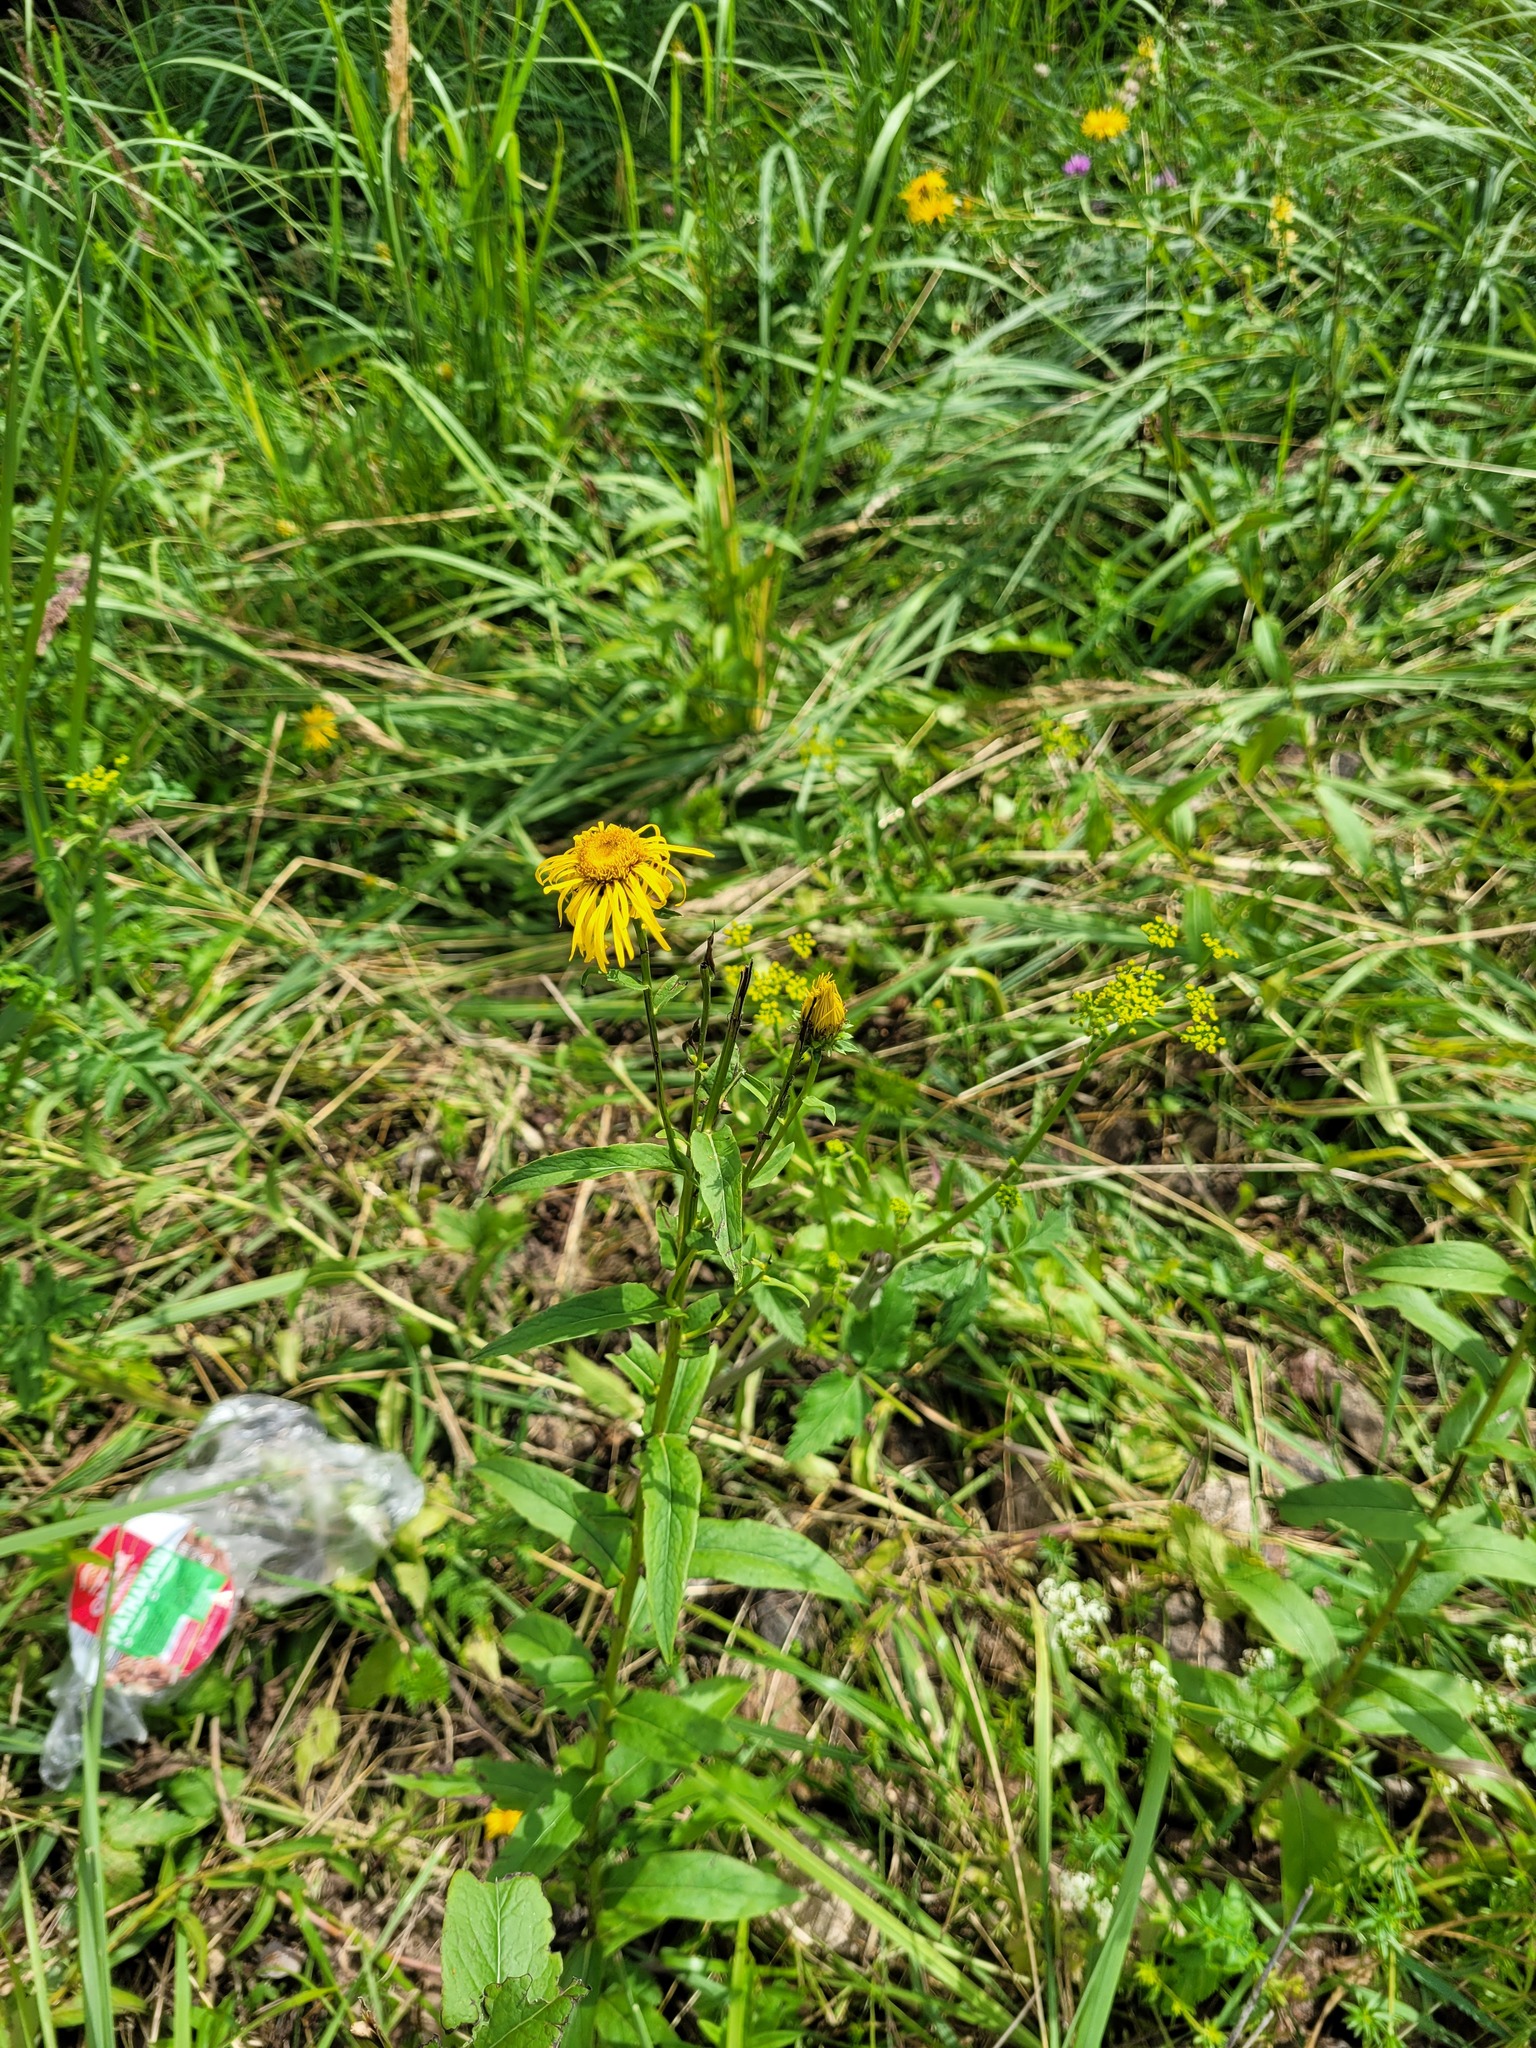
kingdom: Plantae
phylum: Tracheophyta
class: Magnoliopsida
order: Asterales
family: Asteraceae
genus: Pentanema
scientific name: Pentanema salicinum
